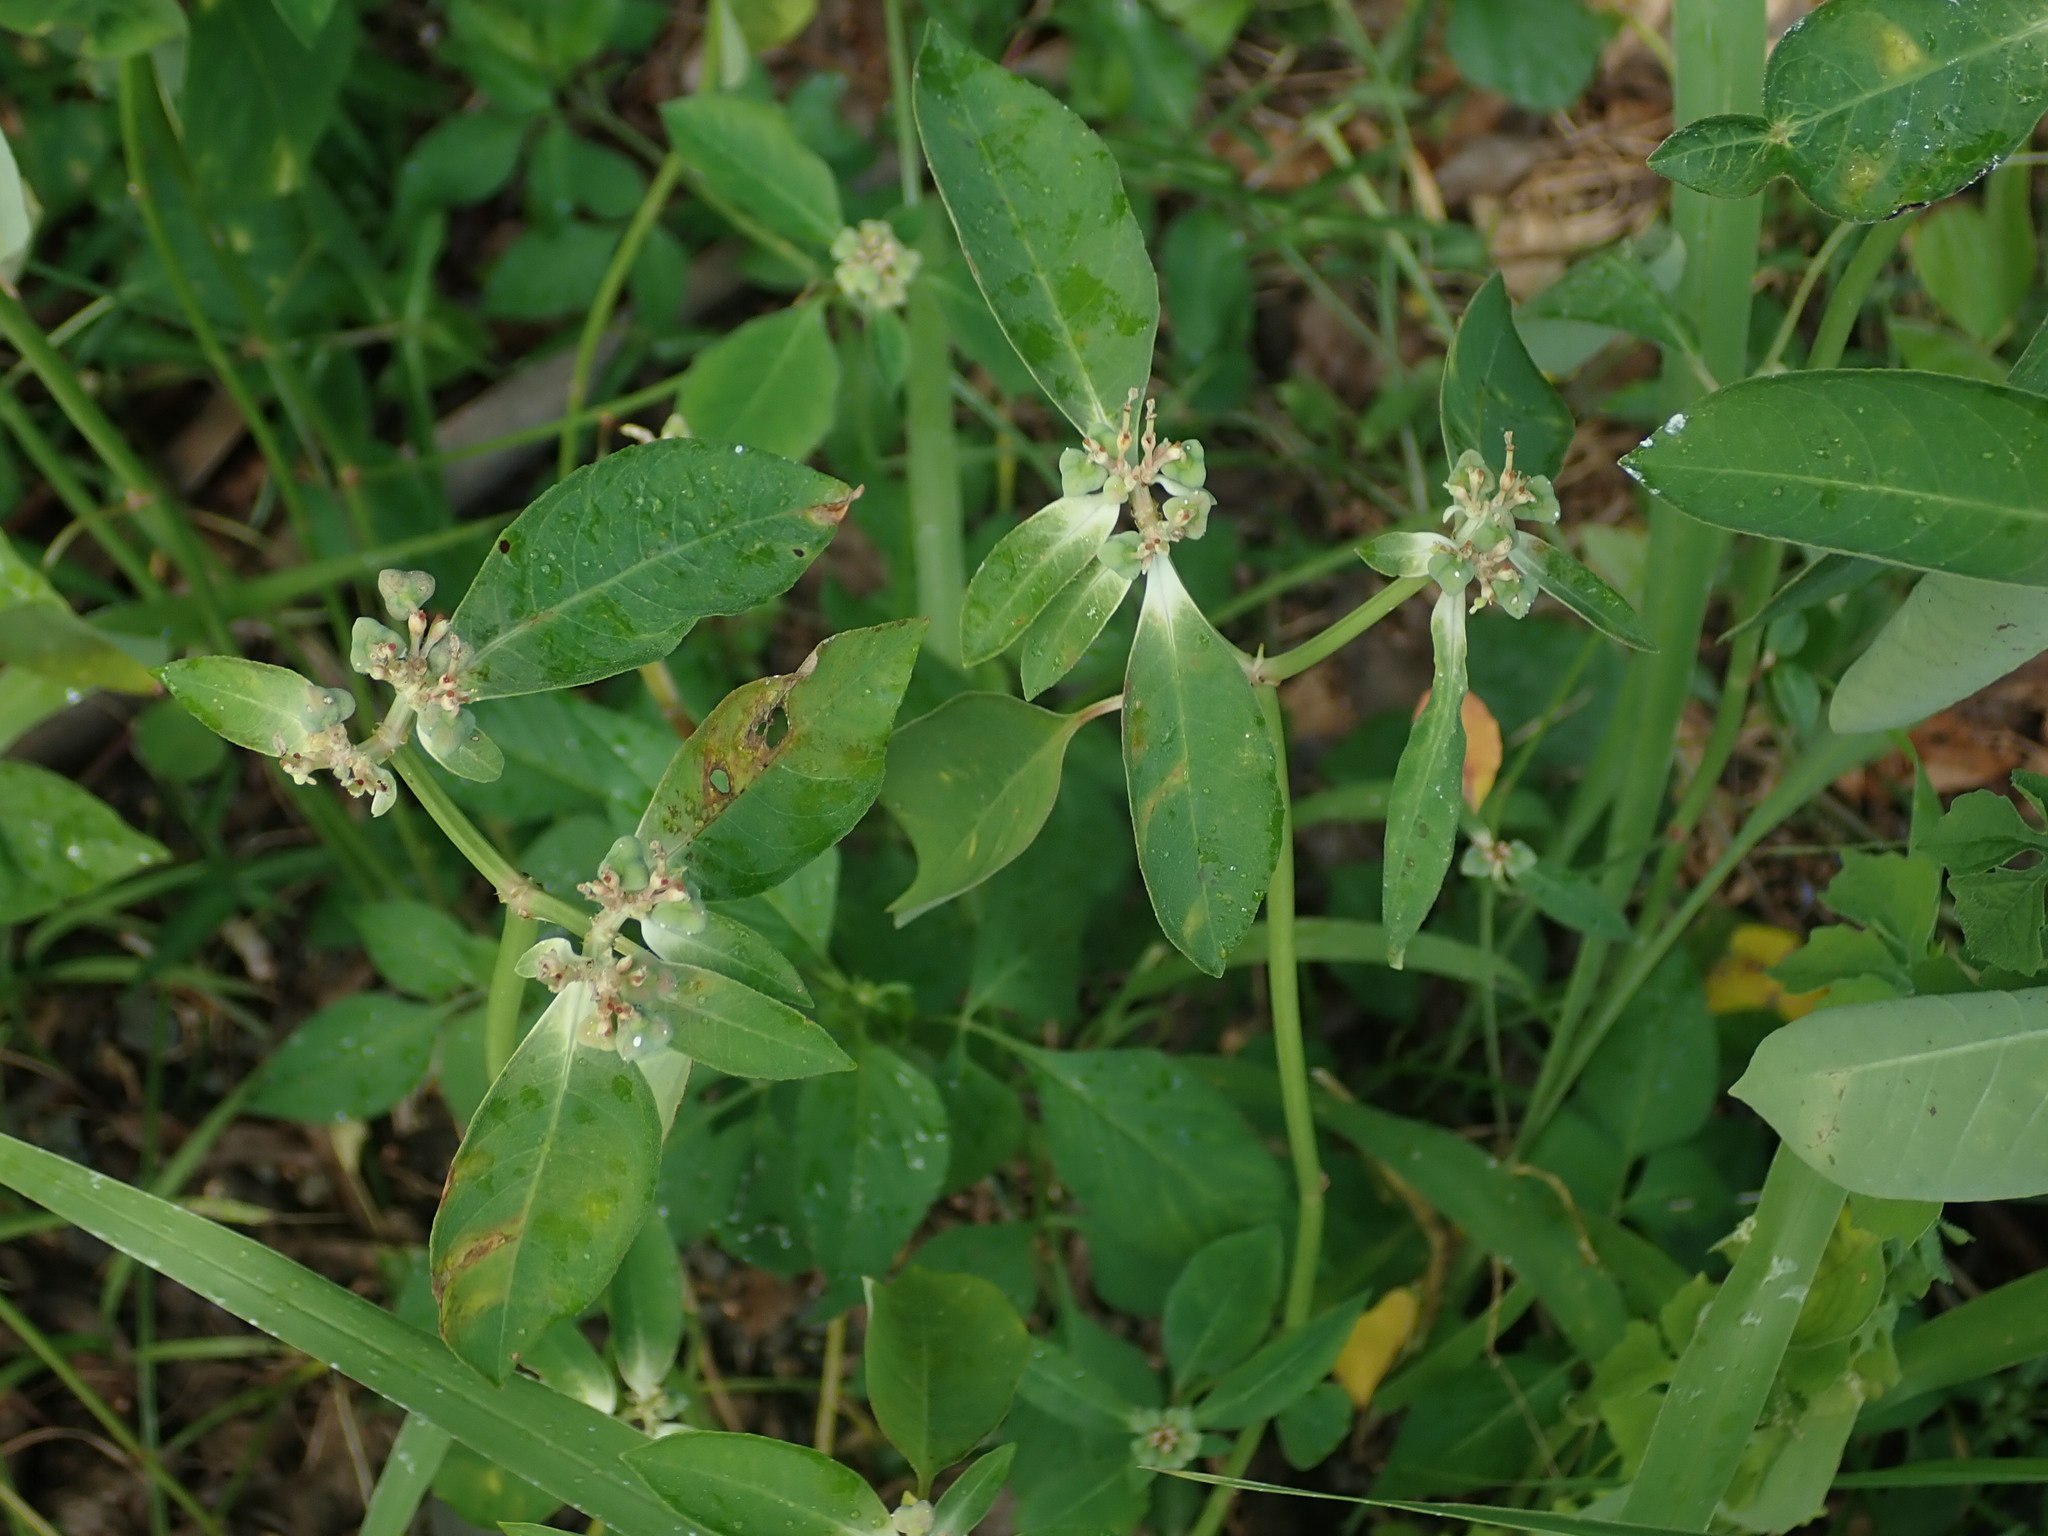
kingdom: Plantae
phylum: Tracheophyta
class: Magnoliopsida
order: Malpighiales
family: Euphorbiaceae
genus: Euphorbia
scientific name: Euphorbia heterophylla
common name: Mexican fireplant
